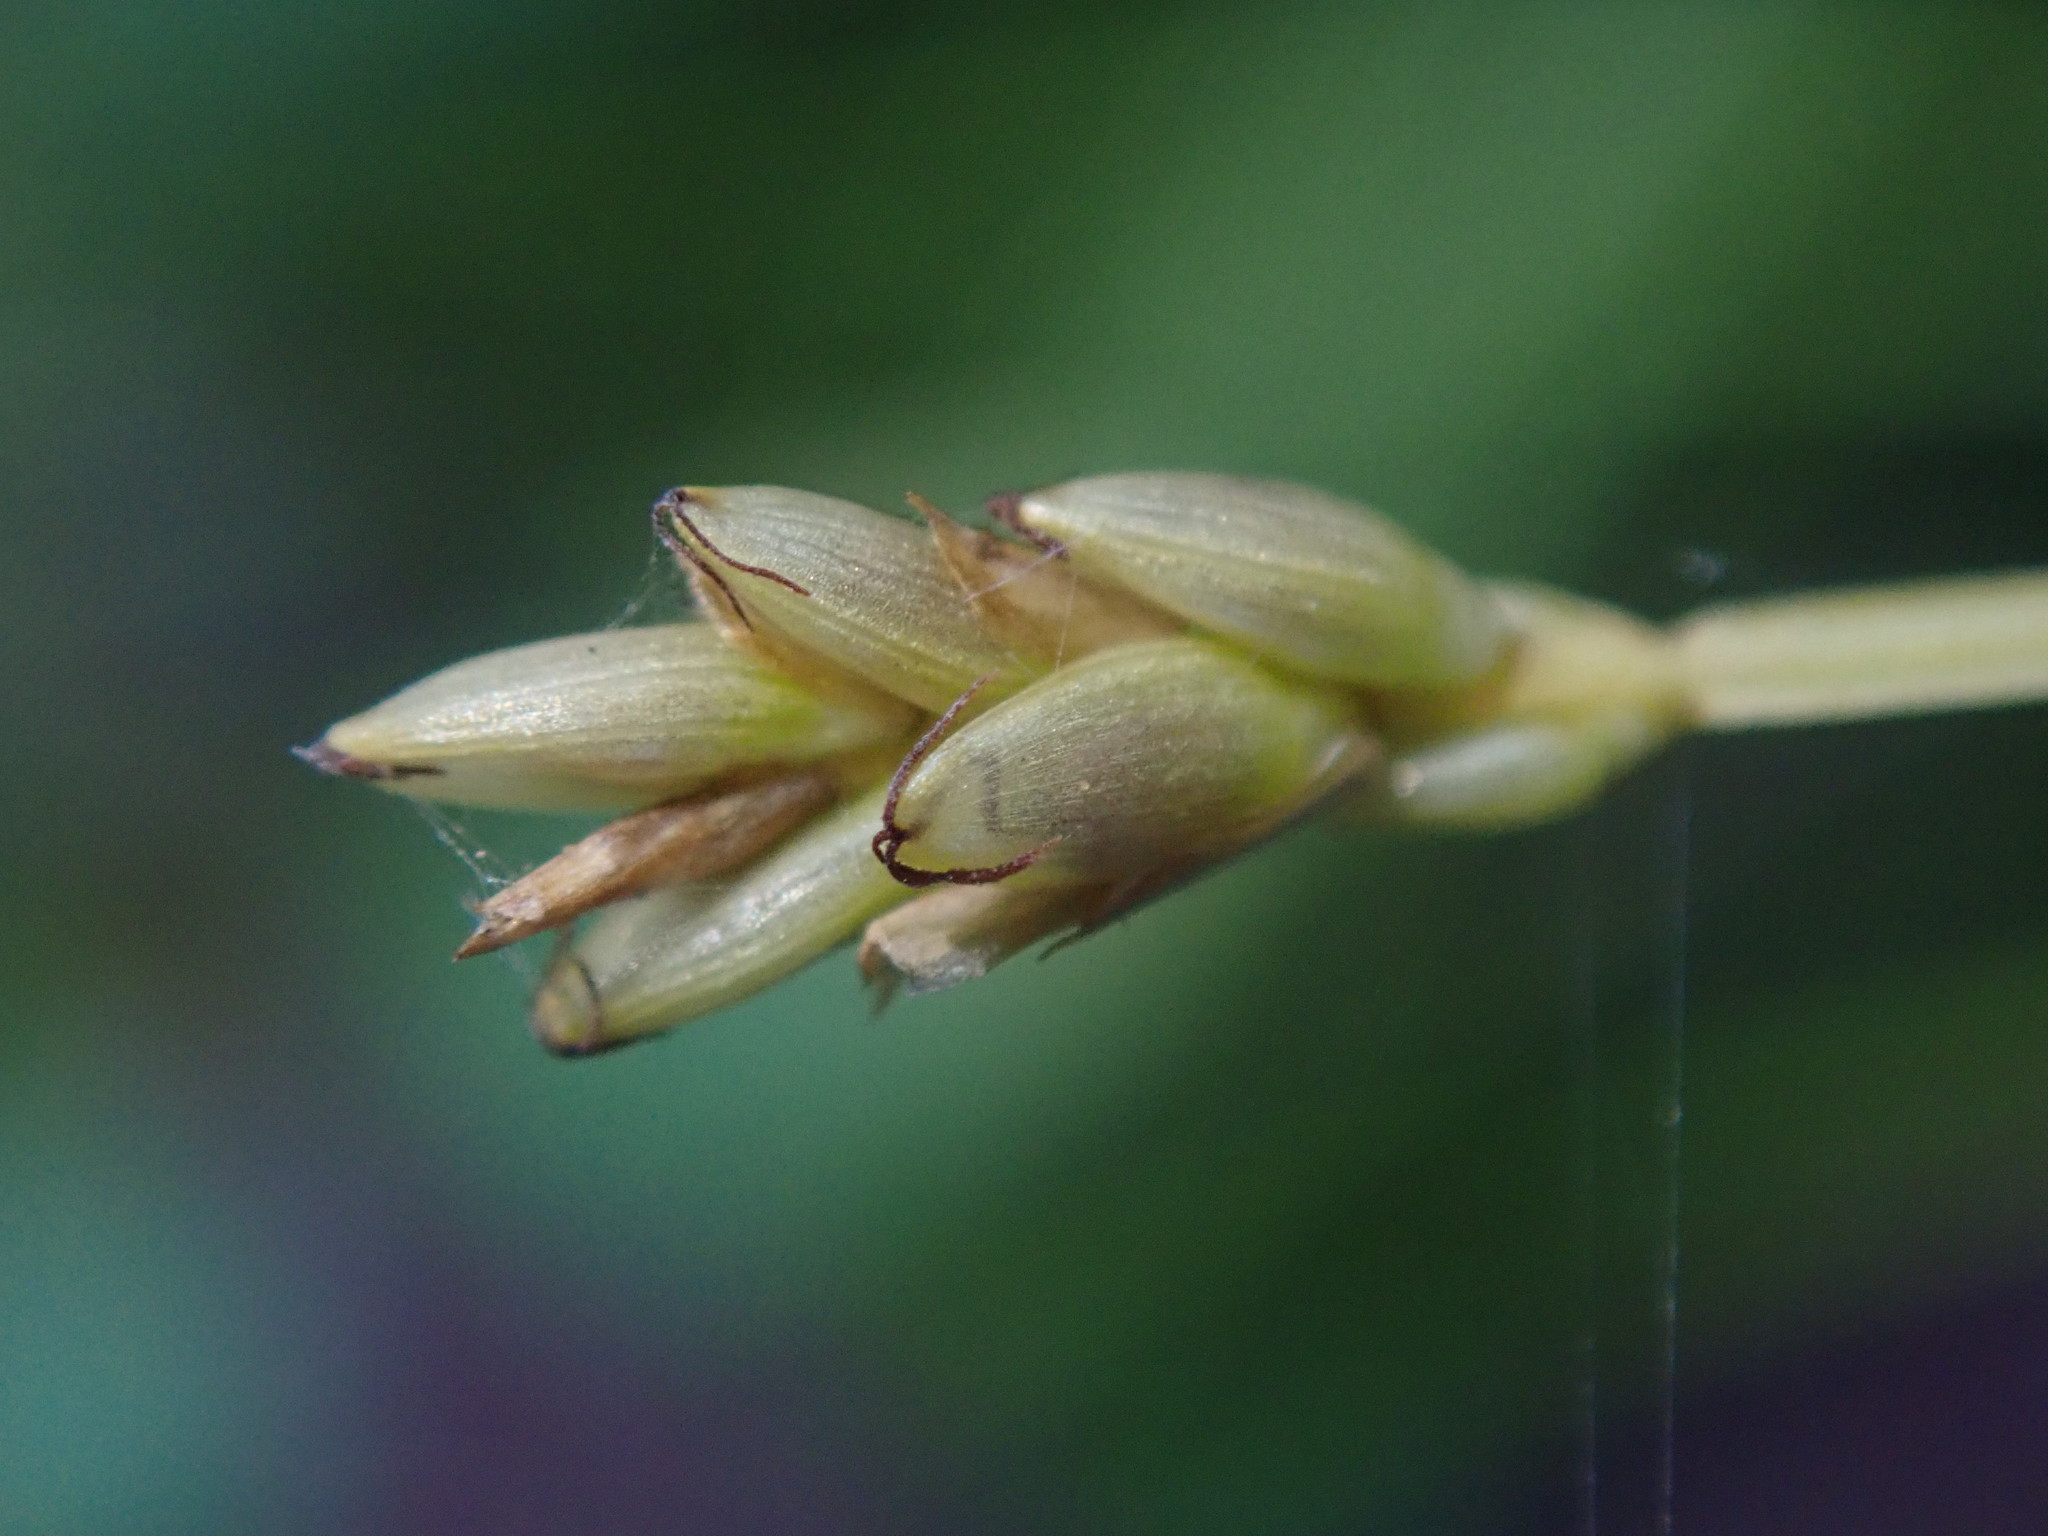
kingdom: Plantae
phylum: Tracheophyta
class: Liliopsida
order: Poales
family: Cyperaceae
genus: Carex
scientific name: Carex leptalea
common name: Bristly-stalked sedge
